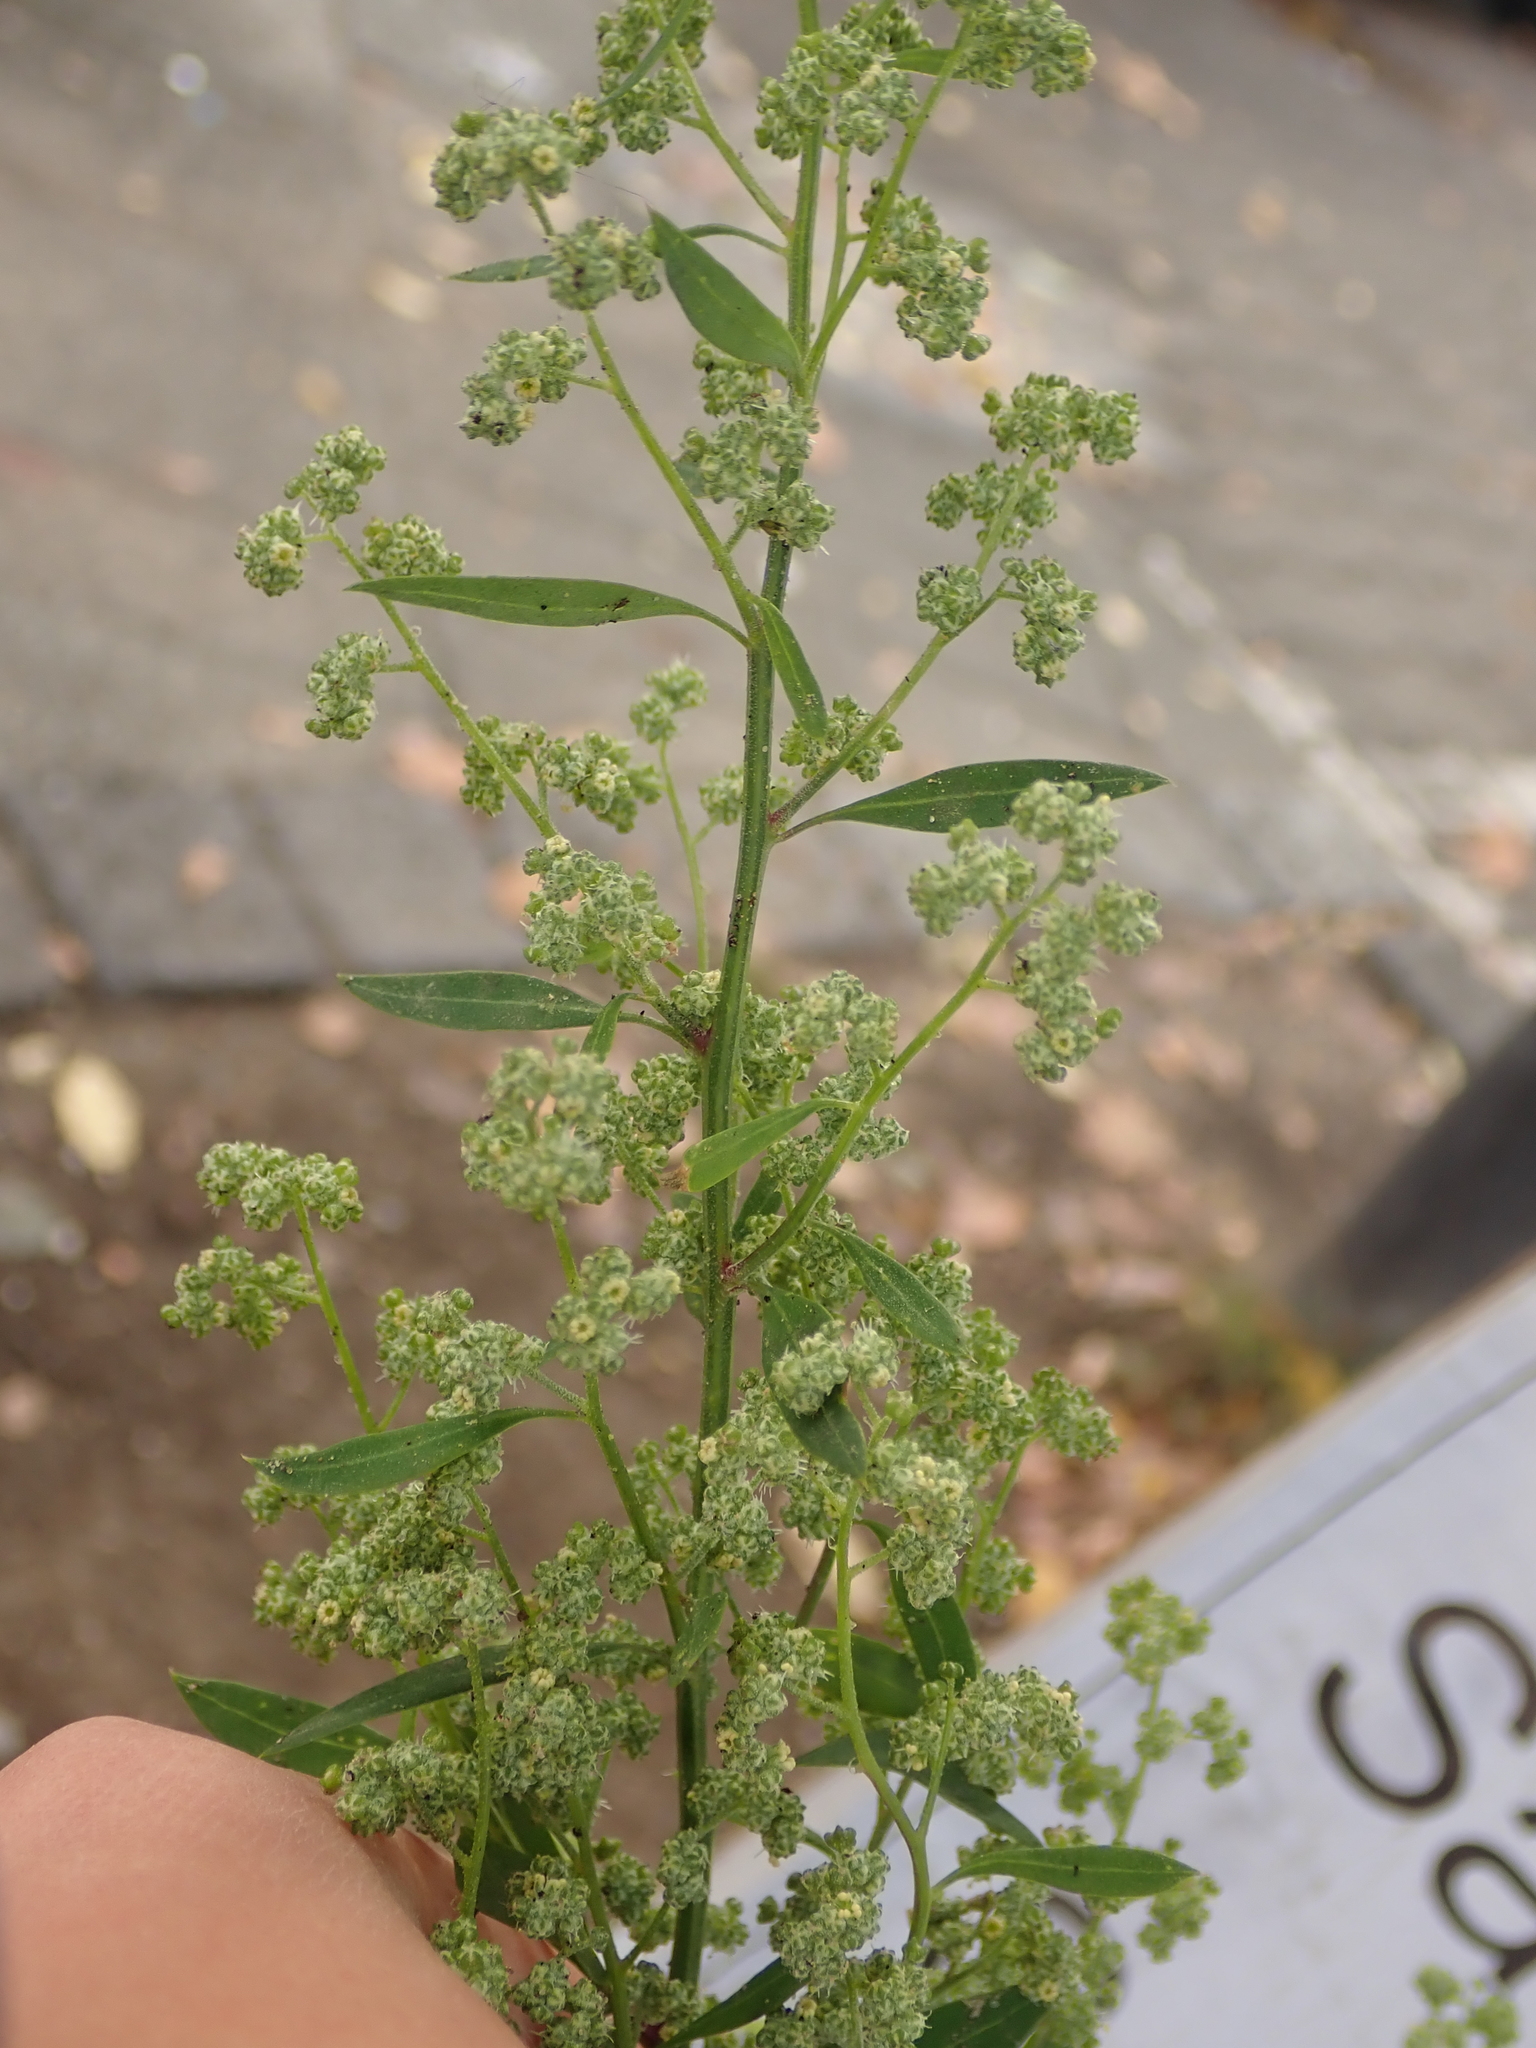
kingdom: Plantae
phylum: Tracheophyta
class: Magnoliopsida
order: Caryophyllales
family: Amaranthaceae
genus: Chenopodium
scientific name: Chenopodium album
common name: Fat-hen
